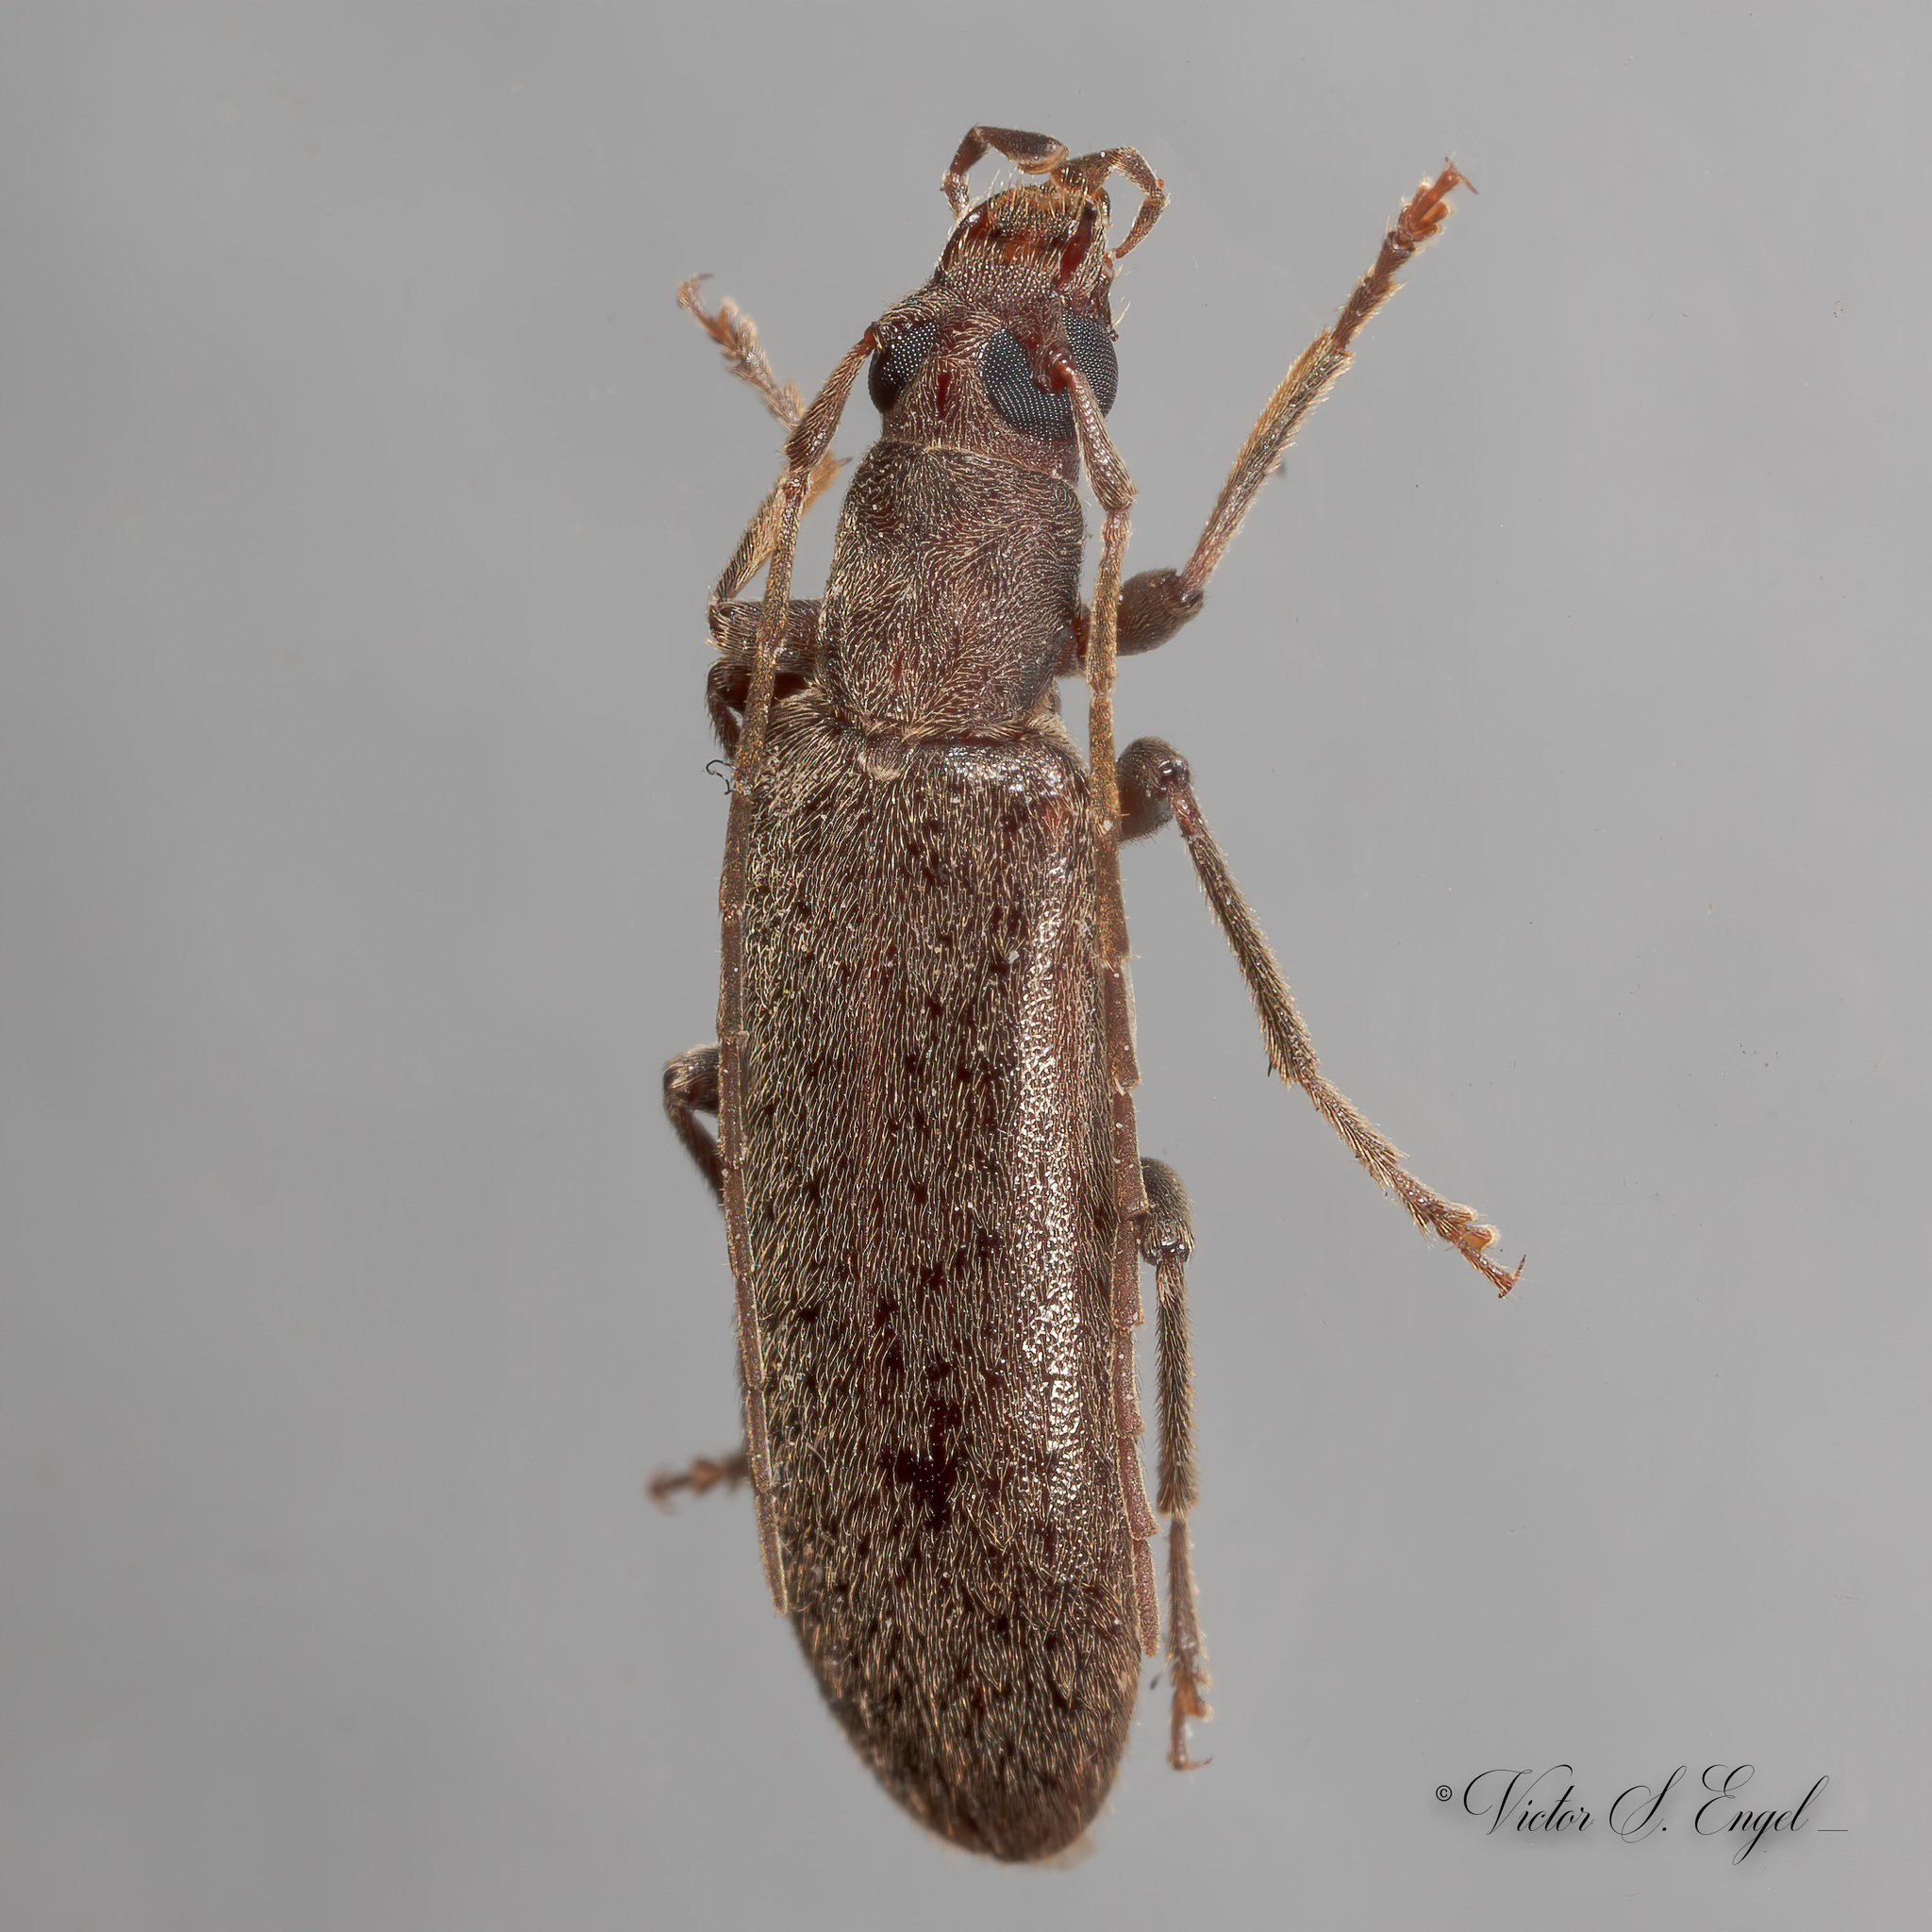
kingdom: Animalia
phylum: Arthropoda
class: Insecta
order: Coleoptera
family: Oedemeridae
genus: Sparedrus
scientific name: Sparedrus aspersus
